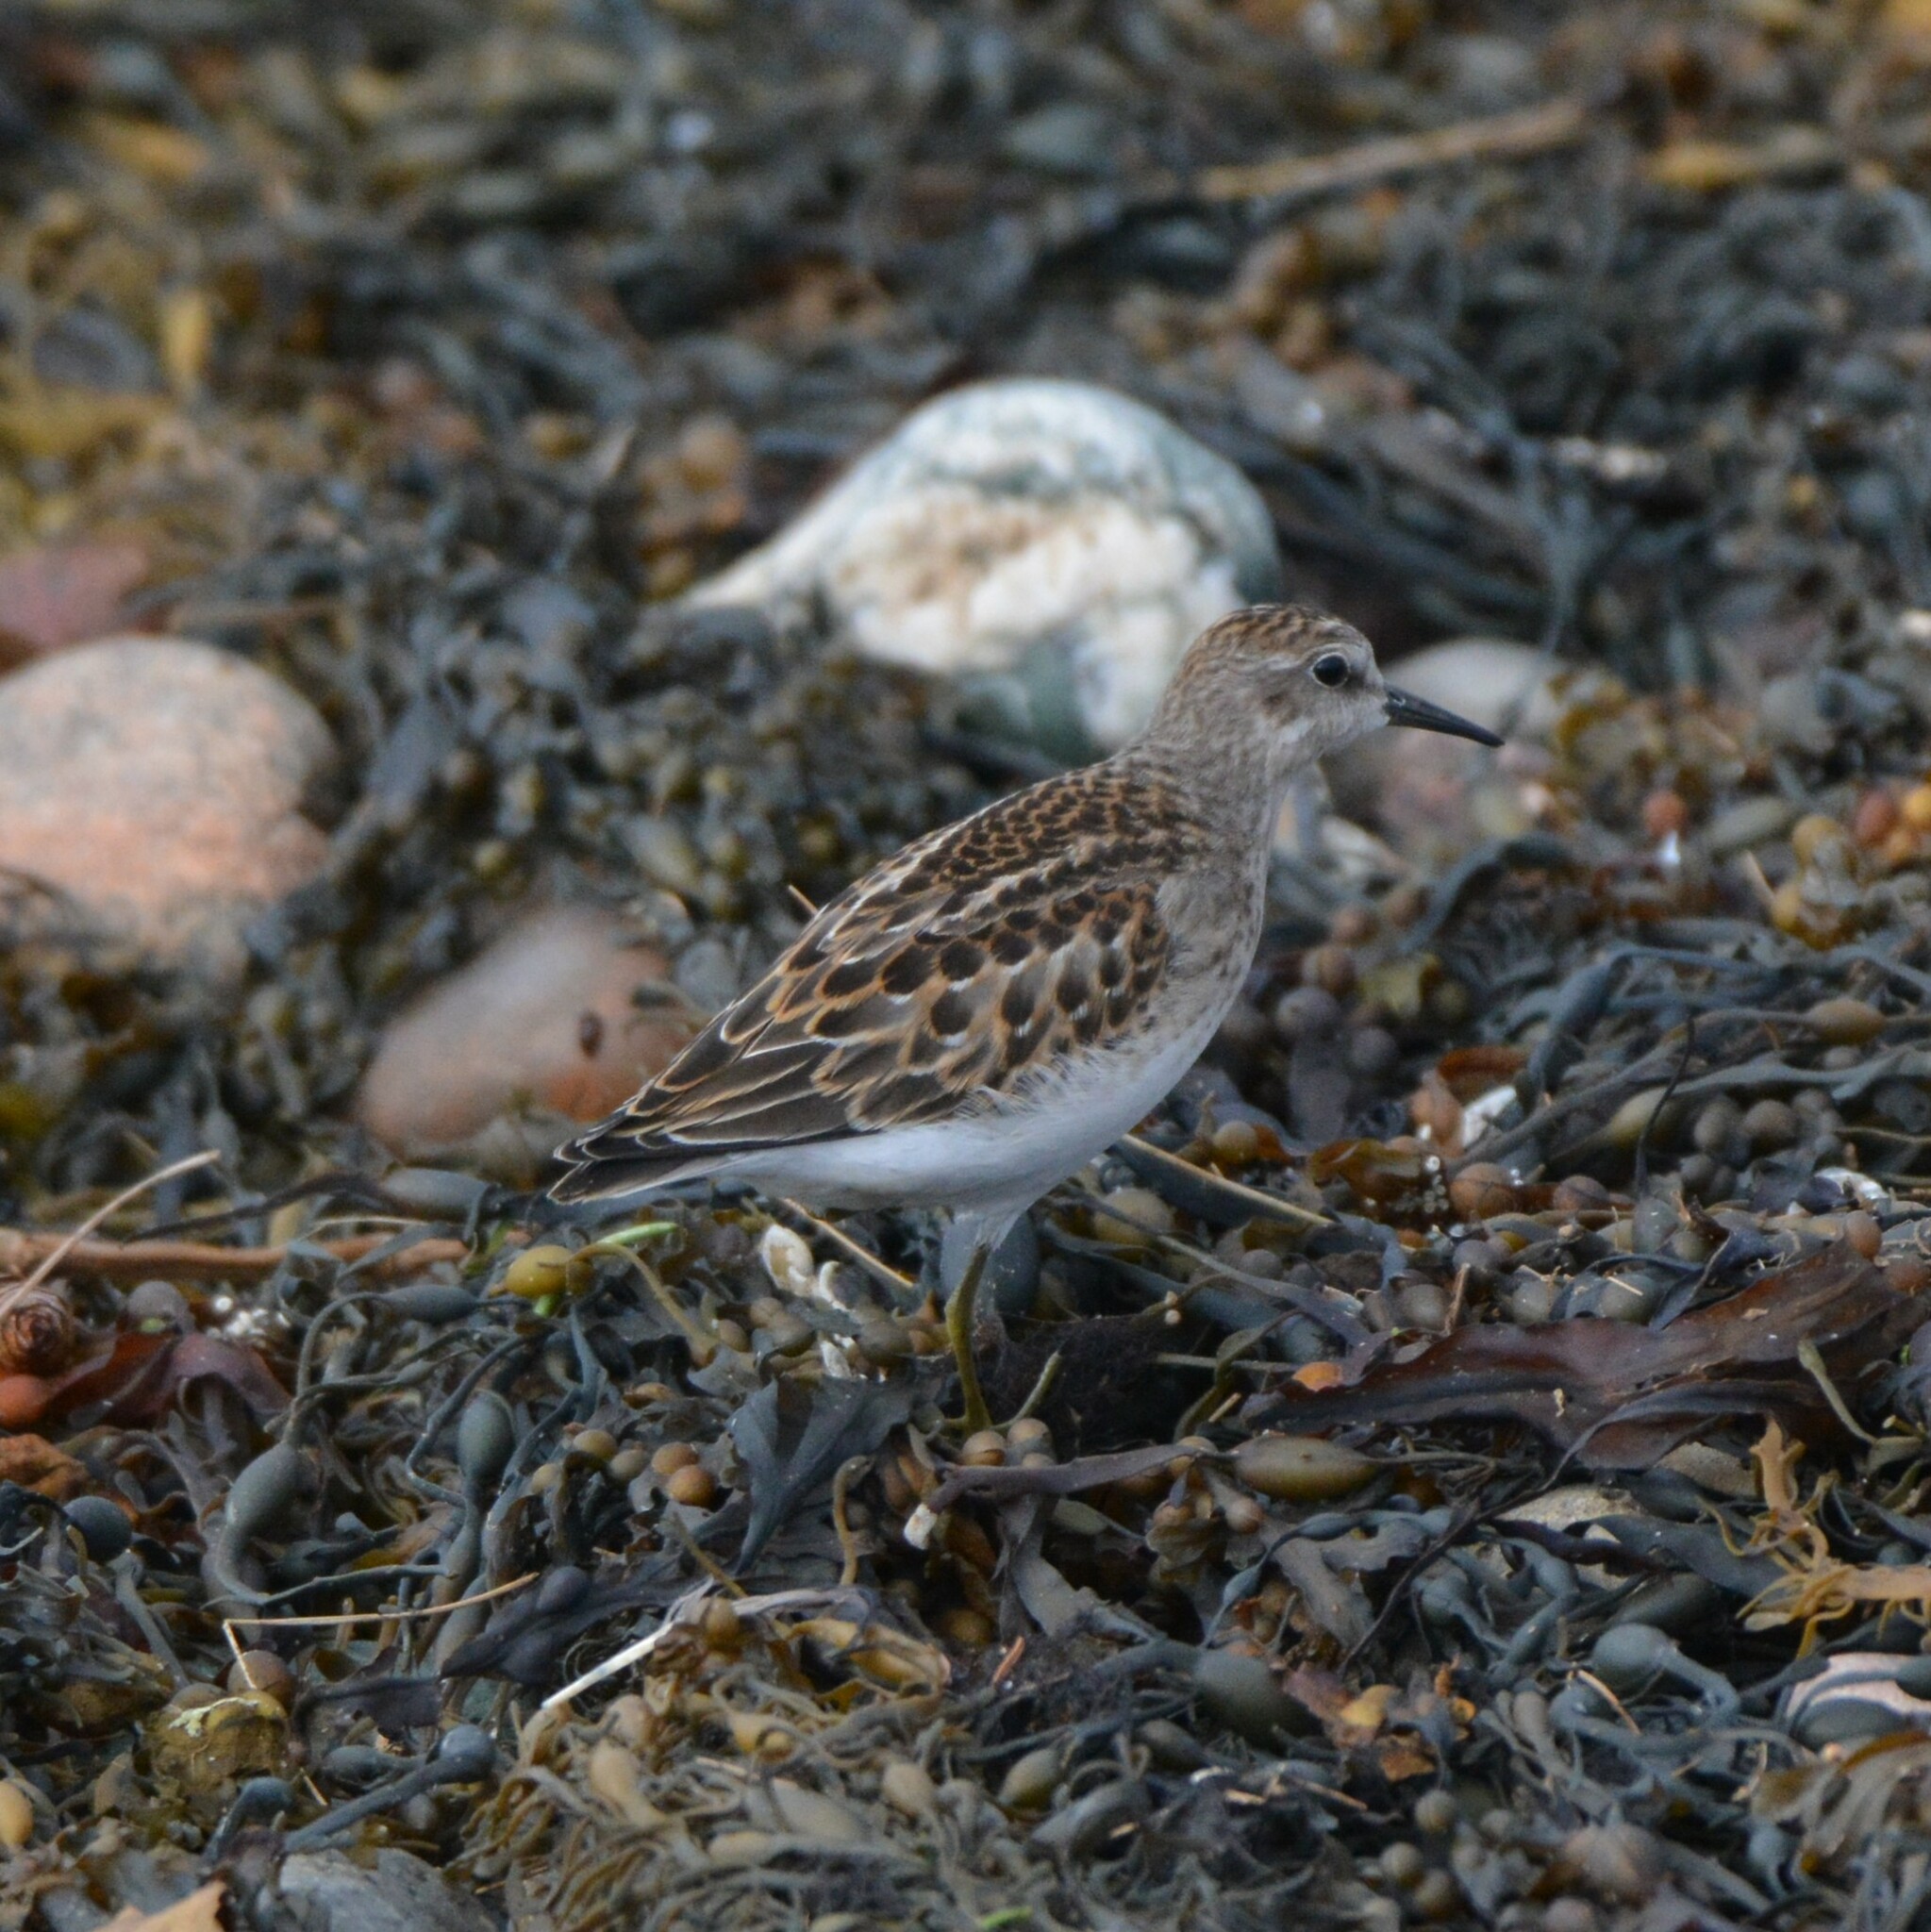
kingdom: Animalia
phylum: Chordata
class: Aves
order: Charadriiformes
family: Scolopacidae
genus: Calidris
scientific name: Calidris minutilla
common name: Least sandpiper
